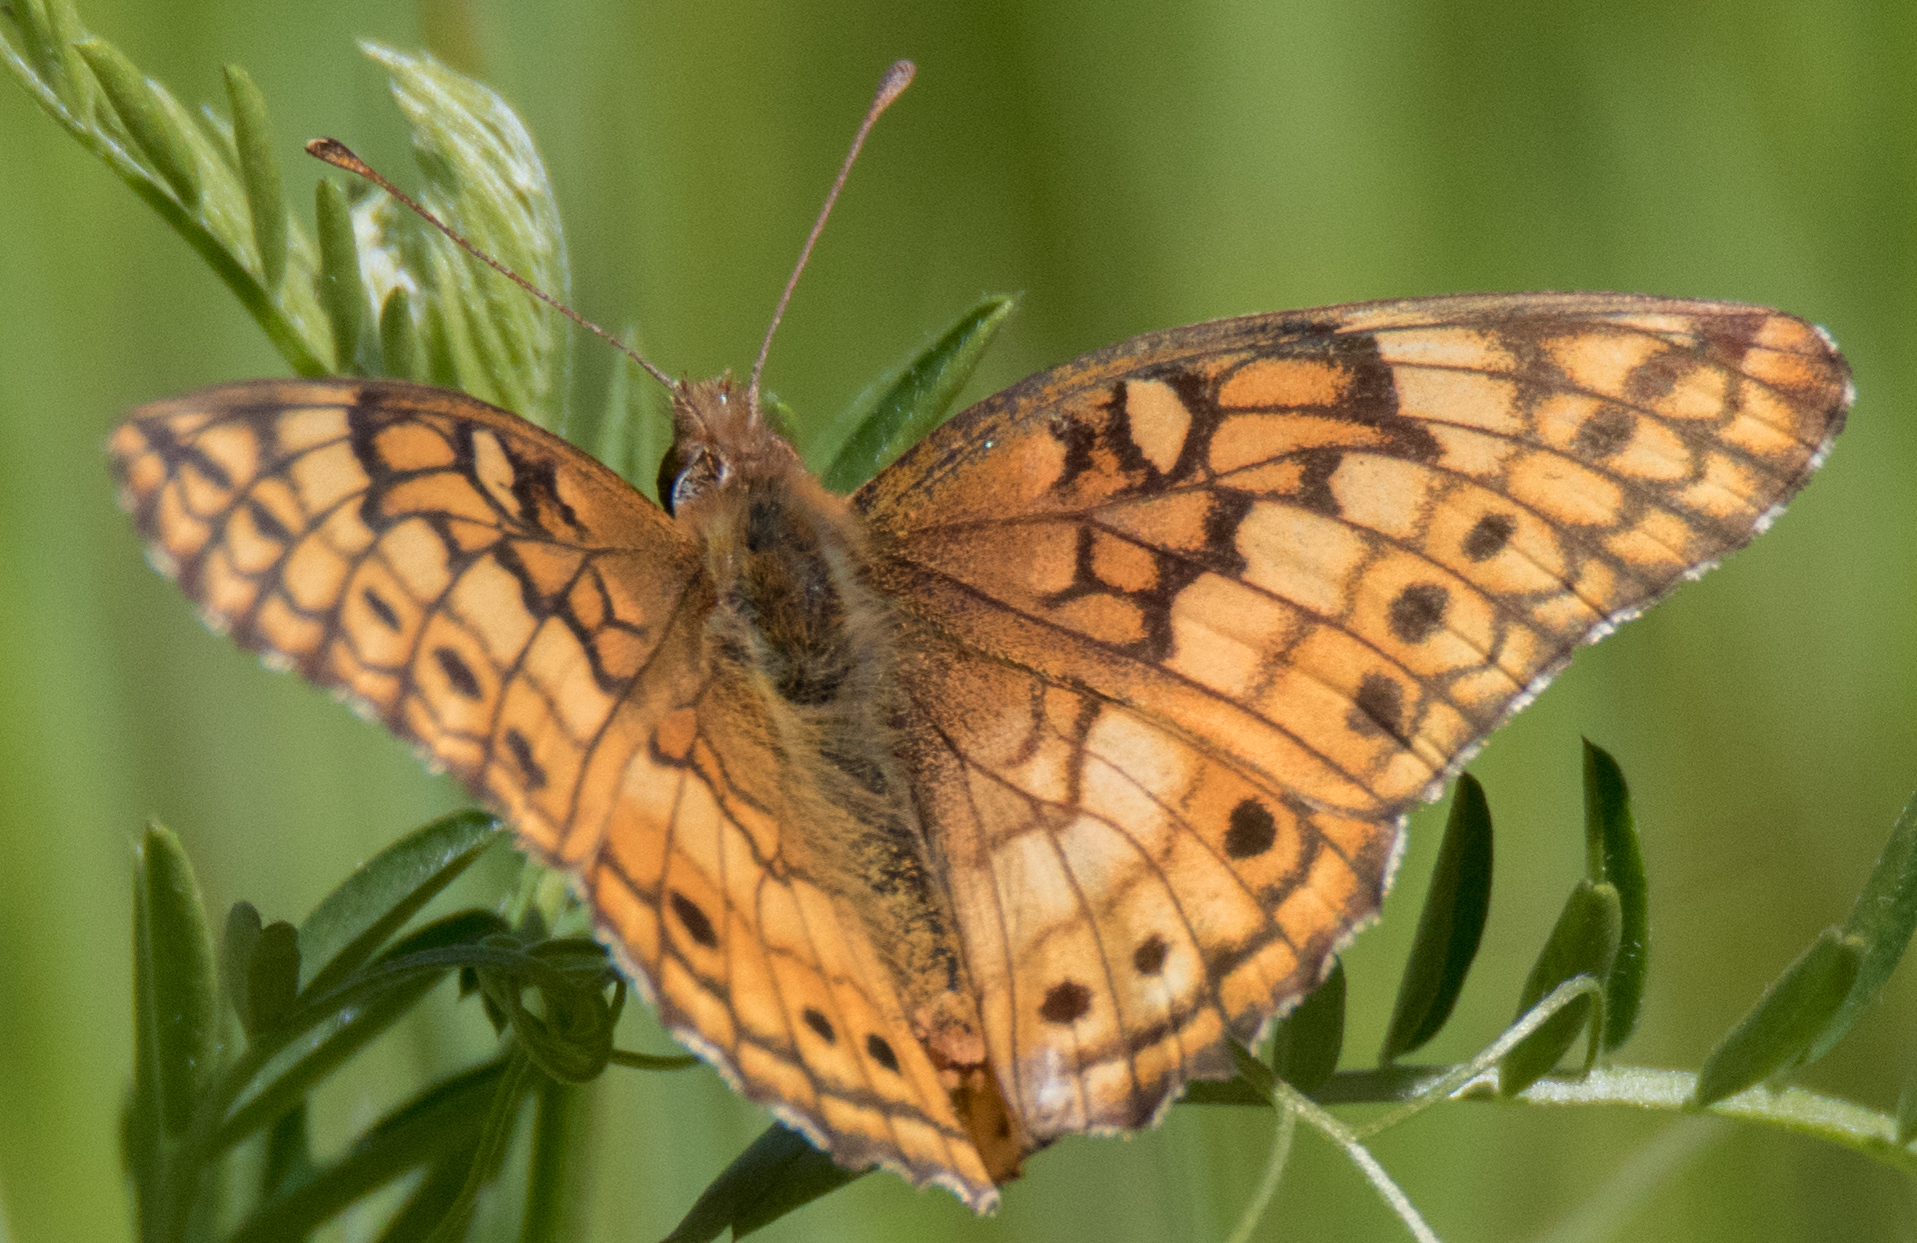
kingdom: Animalia
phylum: Arthropoda
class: Insecta
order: Lepidoptera
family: Nymphalidae
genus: Euptoieta
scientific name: Euptoieta claudia
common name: Variegated fritillary
